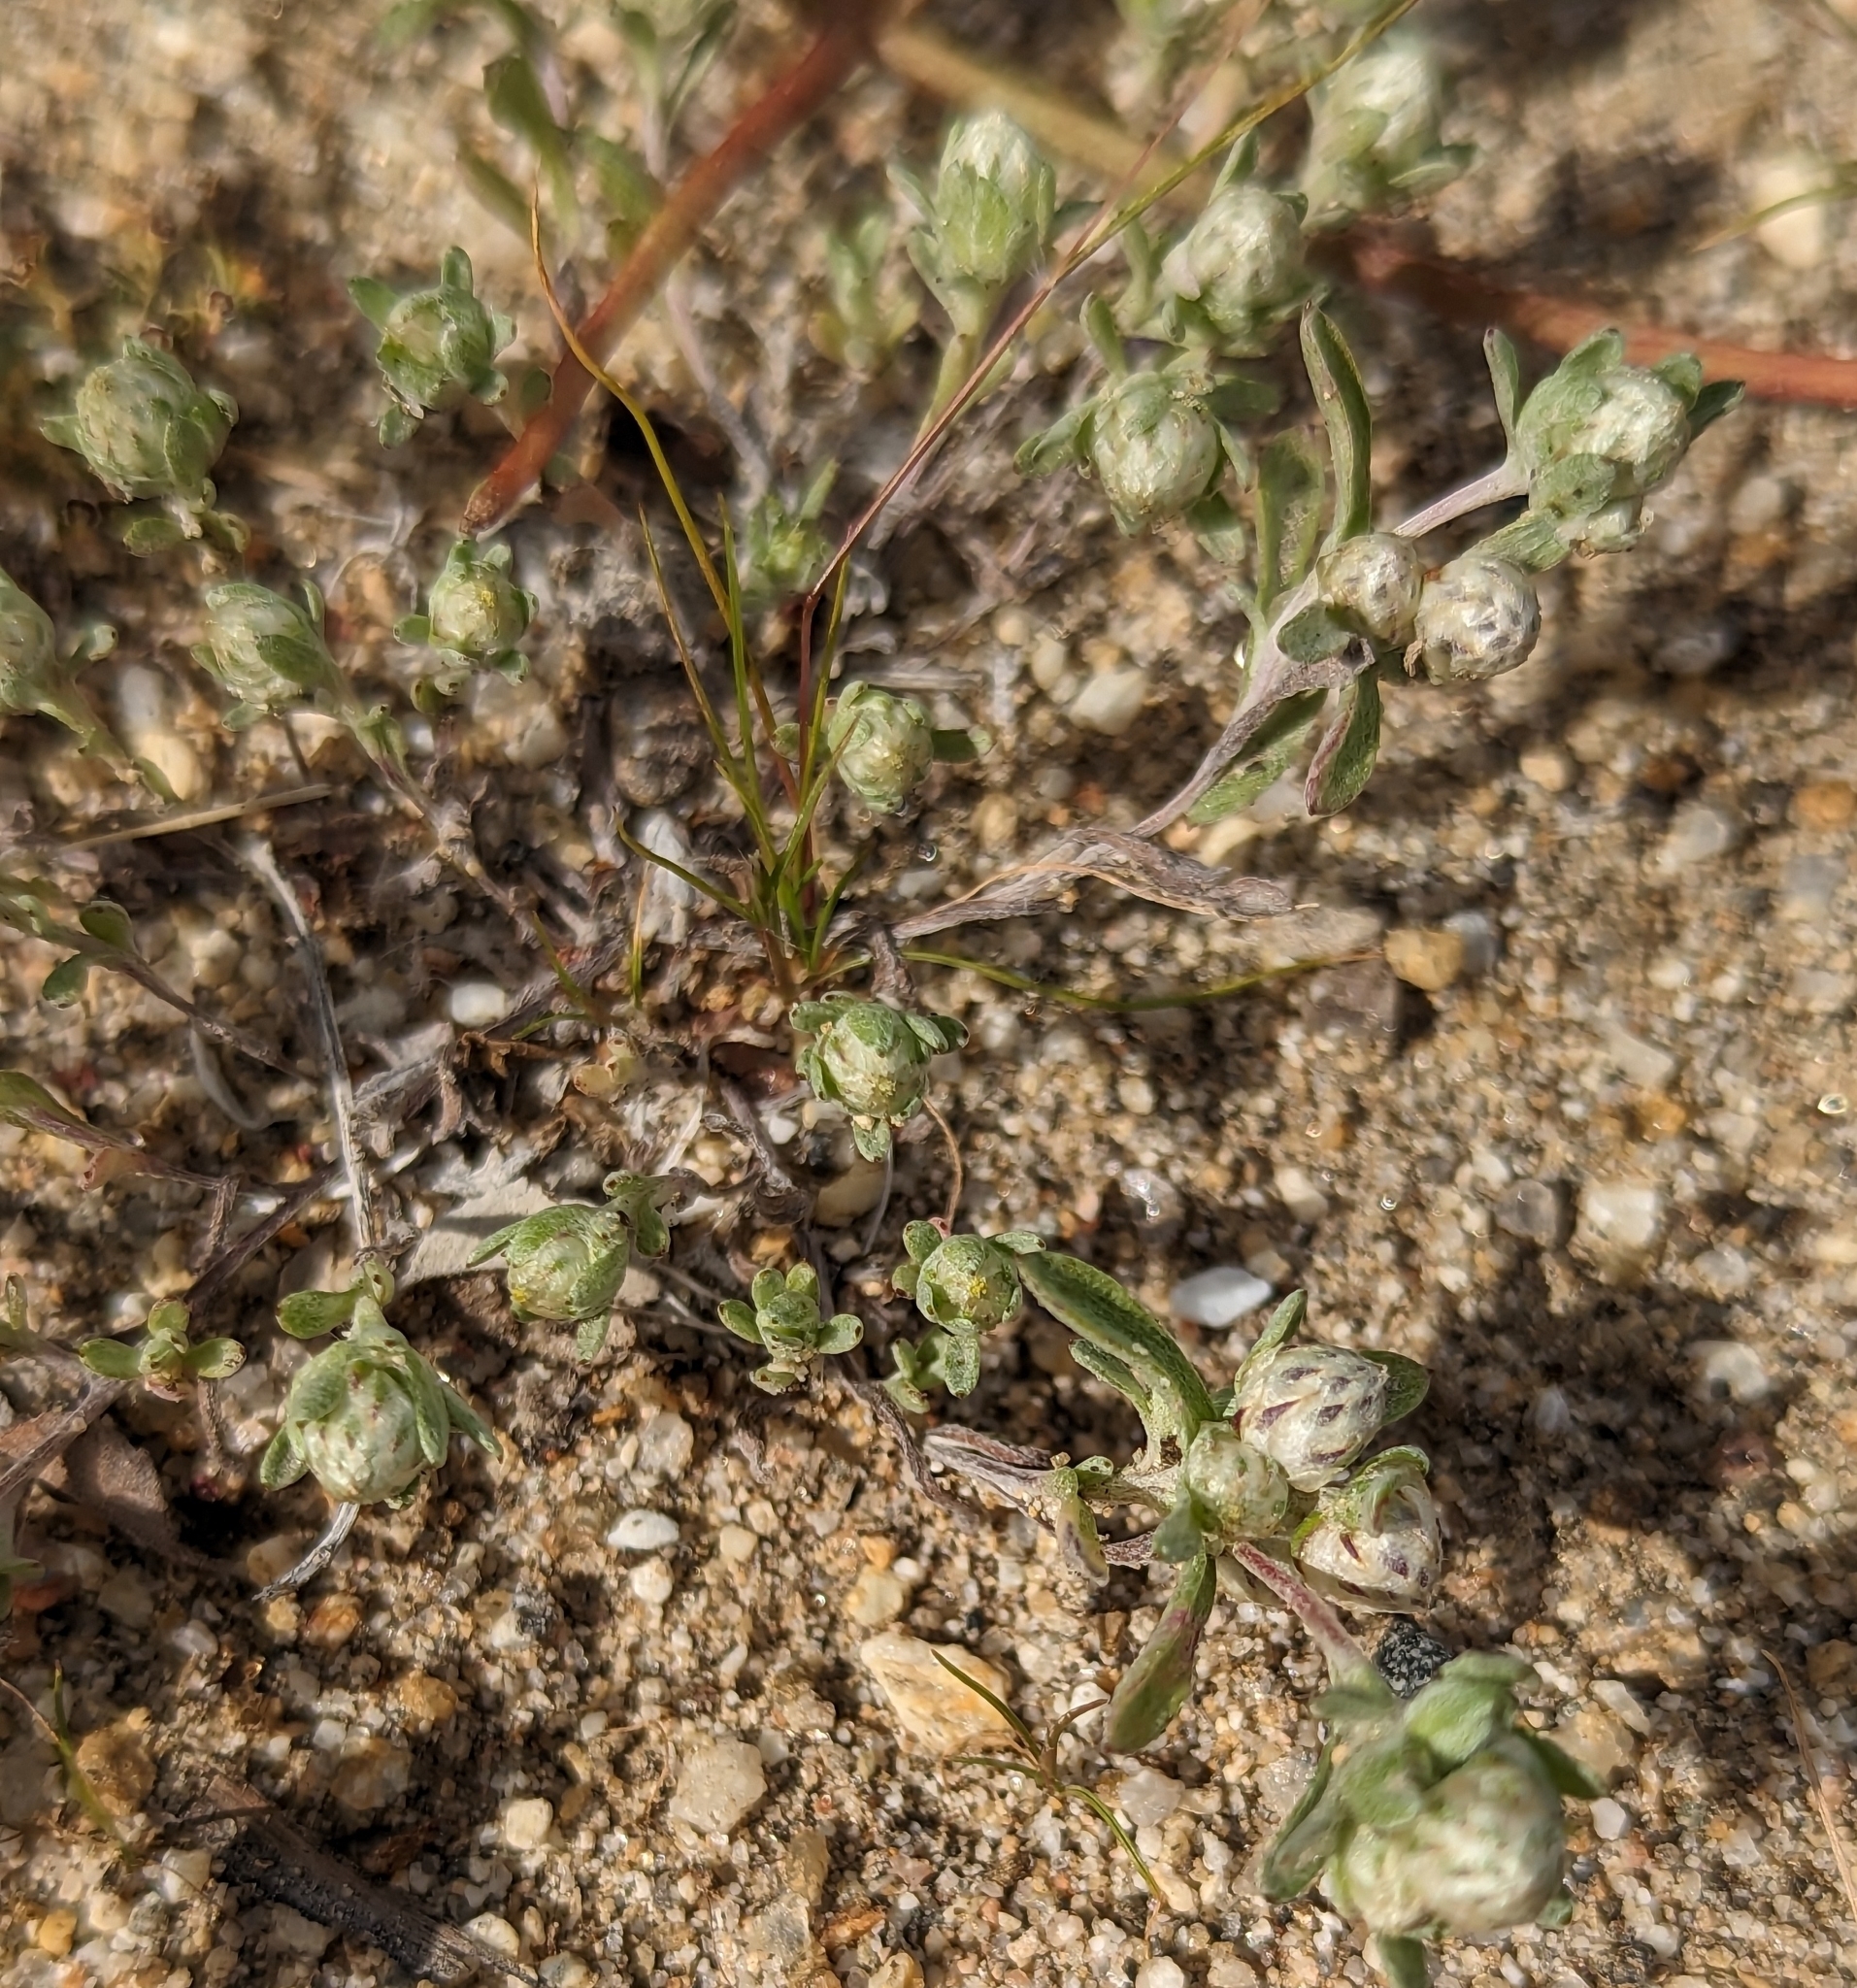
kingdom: Plantae
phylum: Tracheophyta
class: Magnoliopsida
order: Asterales
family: Asteraceae
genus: Stylocline
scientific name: Stylocline gnaphaloides
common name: Everlasting nest-straw
